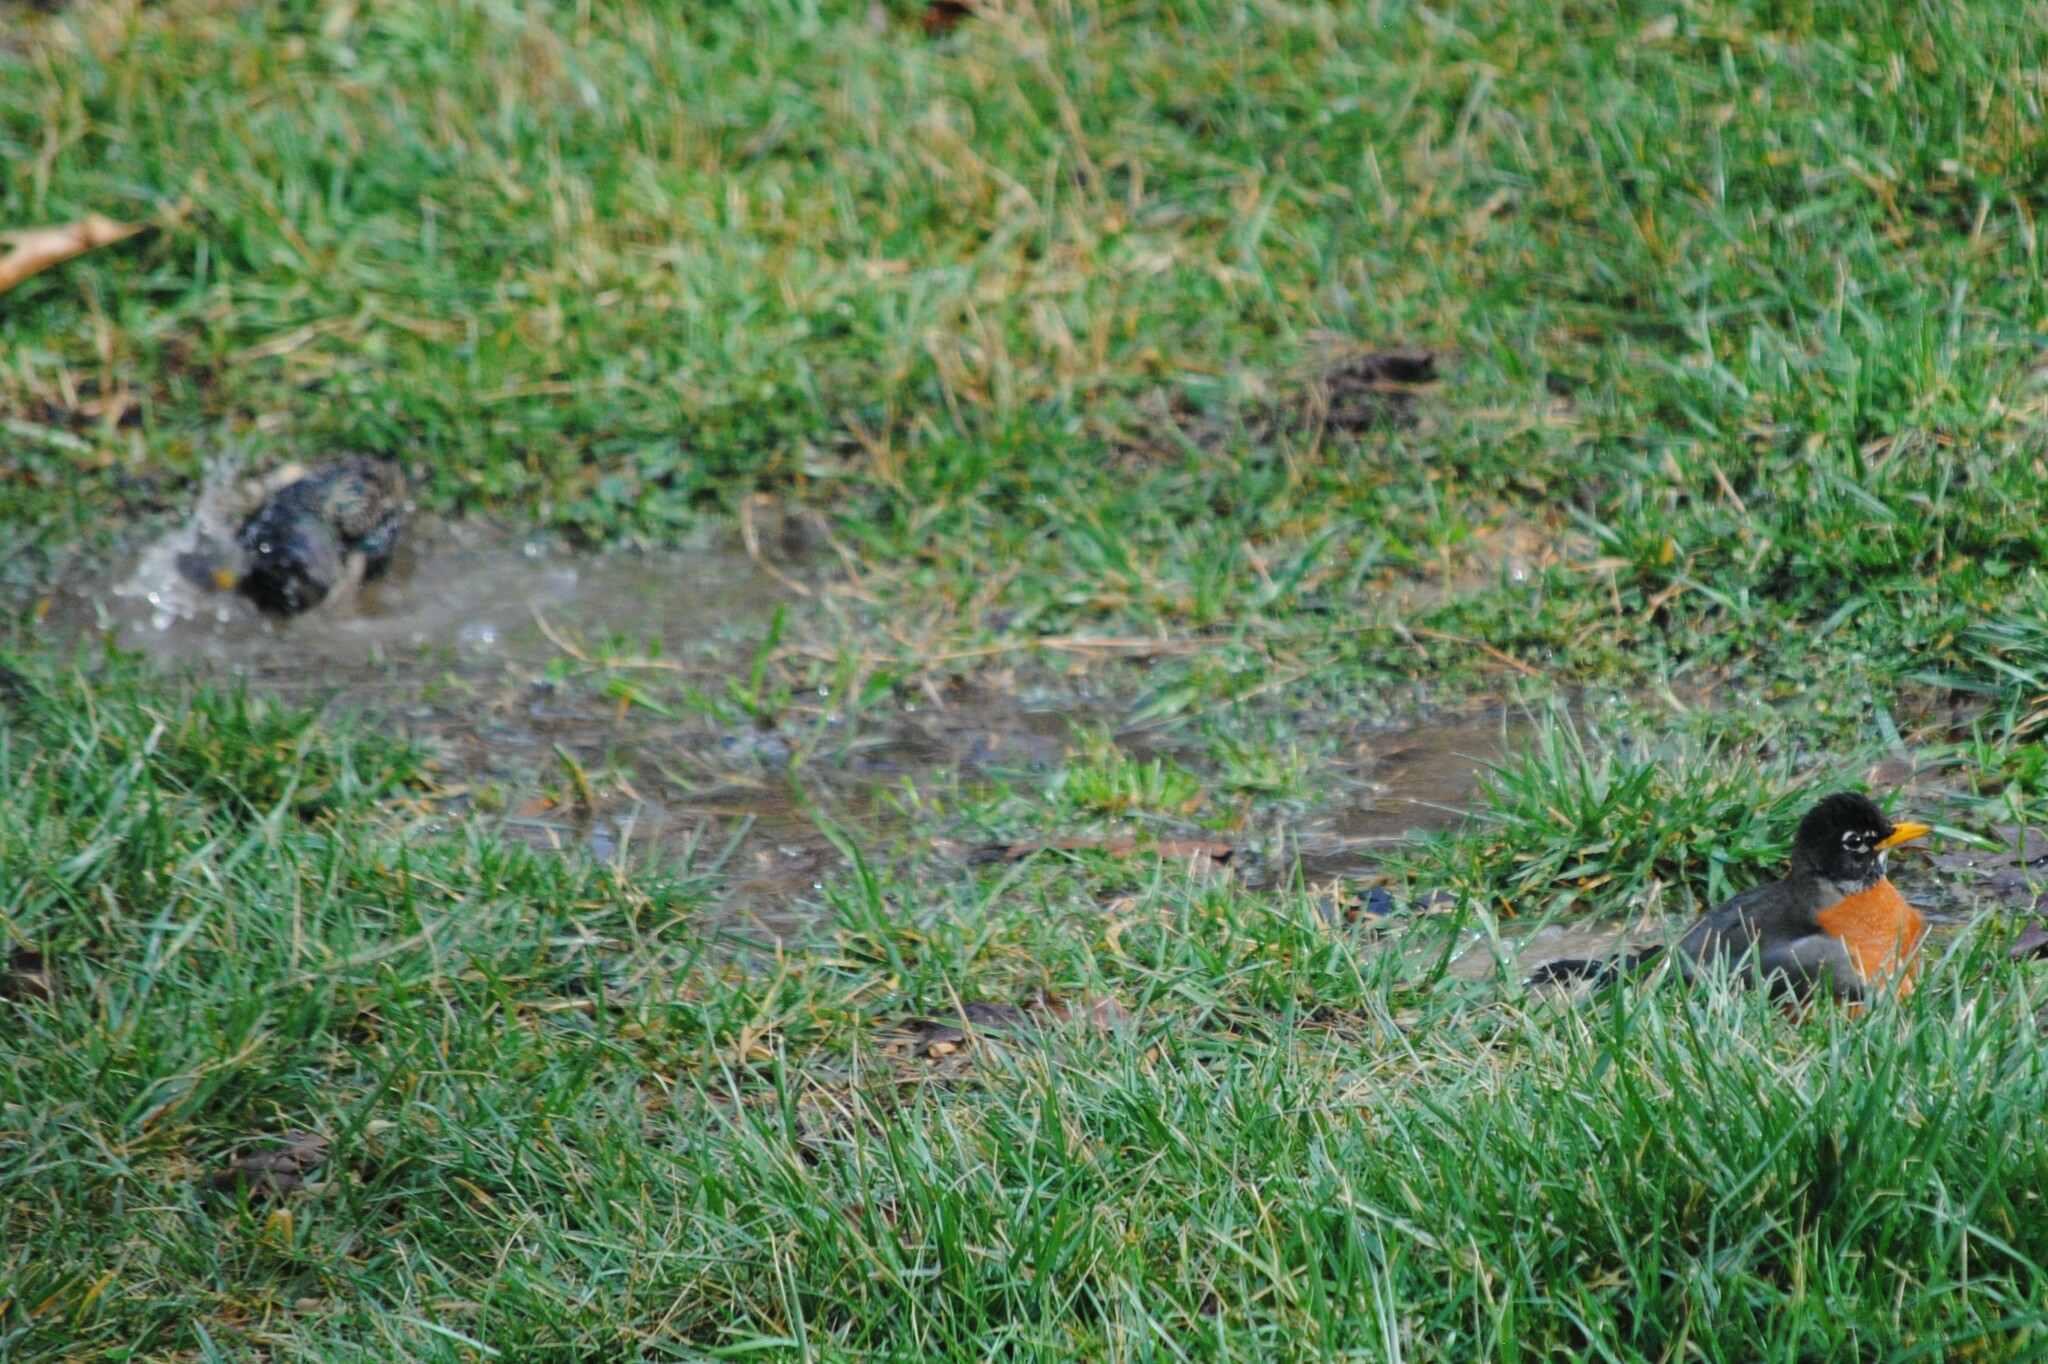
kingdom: Animalia
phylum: Chordata
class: Aves
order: Passeriformes
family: Sturnidae
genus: Sturnus
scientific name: Sturnus vulgaris
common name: Common starling
